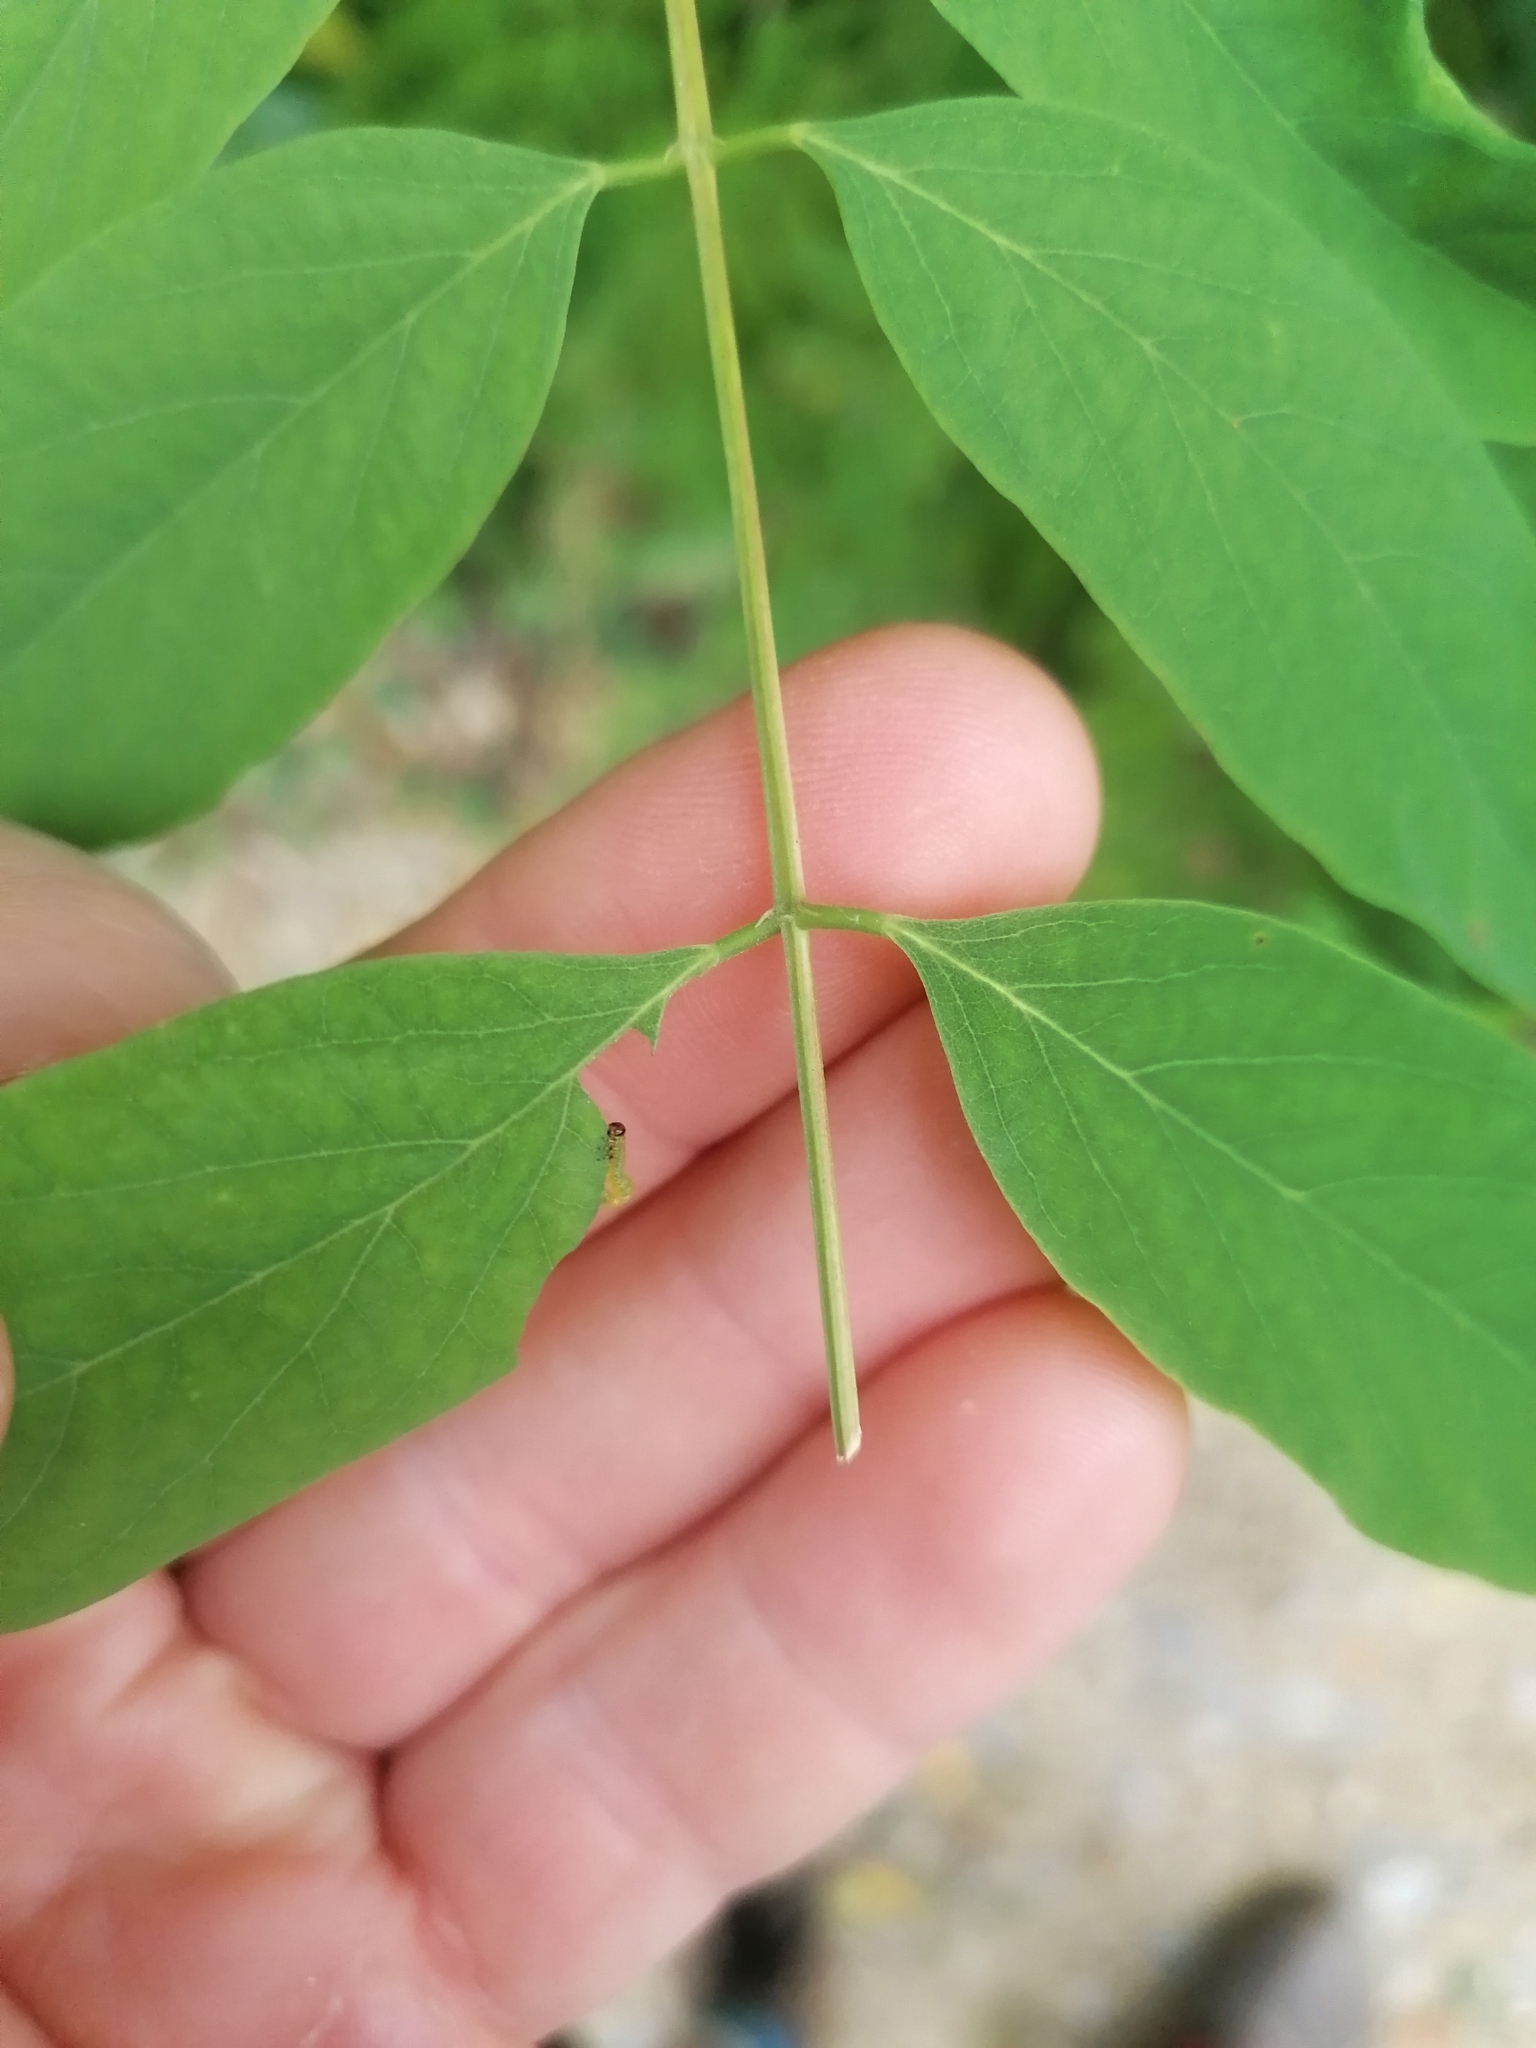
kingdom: Animalia
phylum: Arthropoda
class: Insecta
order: Hymenoptera
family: Tenthredinidae
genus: Euura
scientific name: Euura tibialis
